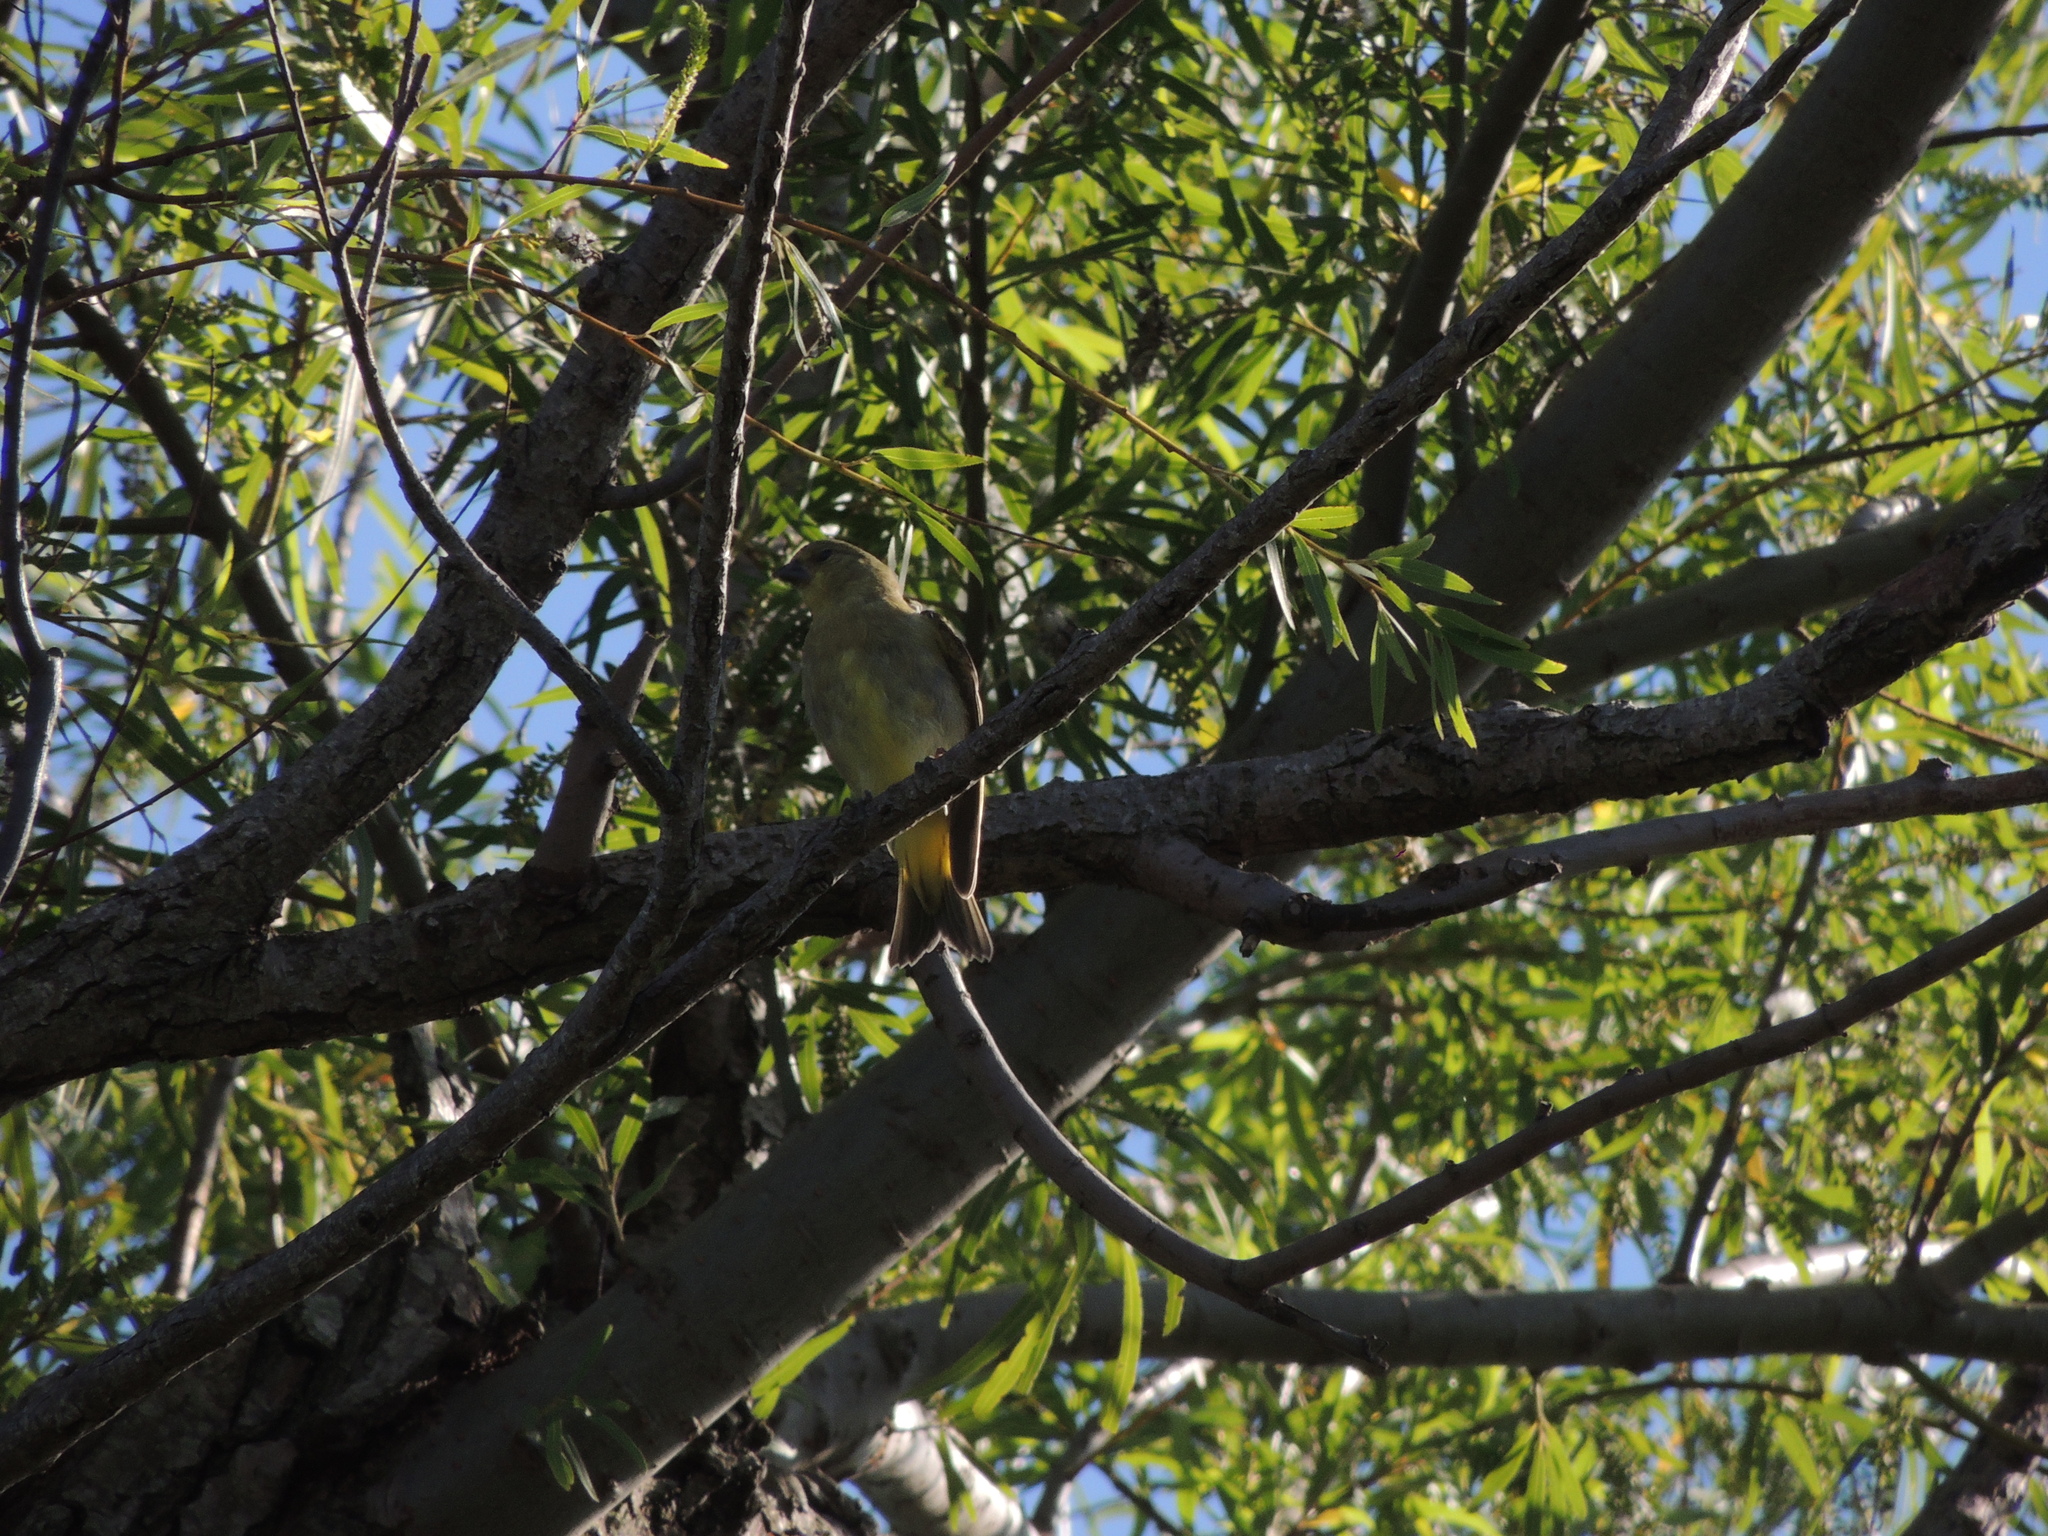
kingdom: Animalia
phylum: Chordata
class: Aves
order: Passeriformes
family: Fringillidae
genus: Spinus
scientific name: Spinus magellanicus
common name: Hooded siskin
